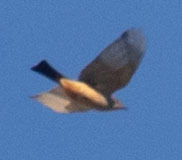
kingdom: Animalia
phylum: Chordata
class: Aves
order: Passeriformes
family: Tyrannidae
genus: Sayornis
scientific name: Sayornis saya
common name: Say's phoebe
